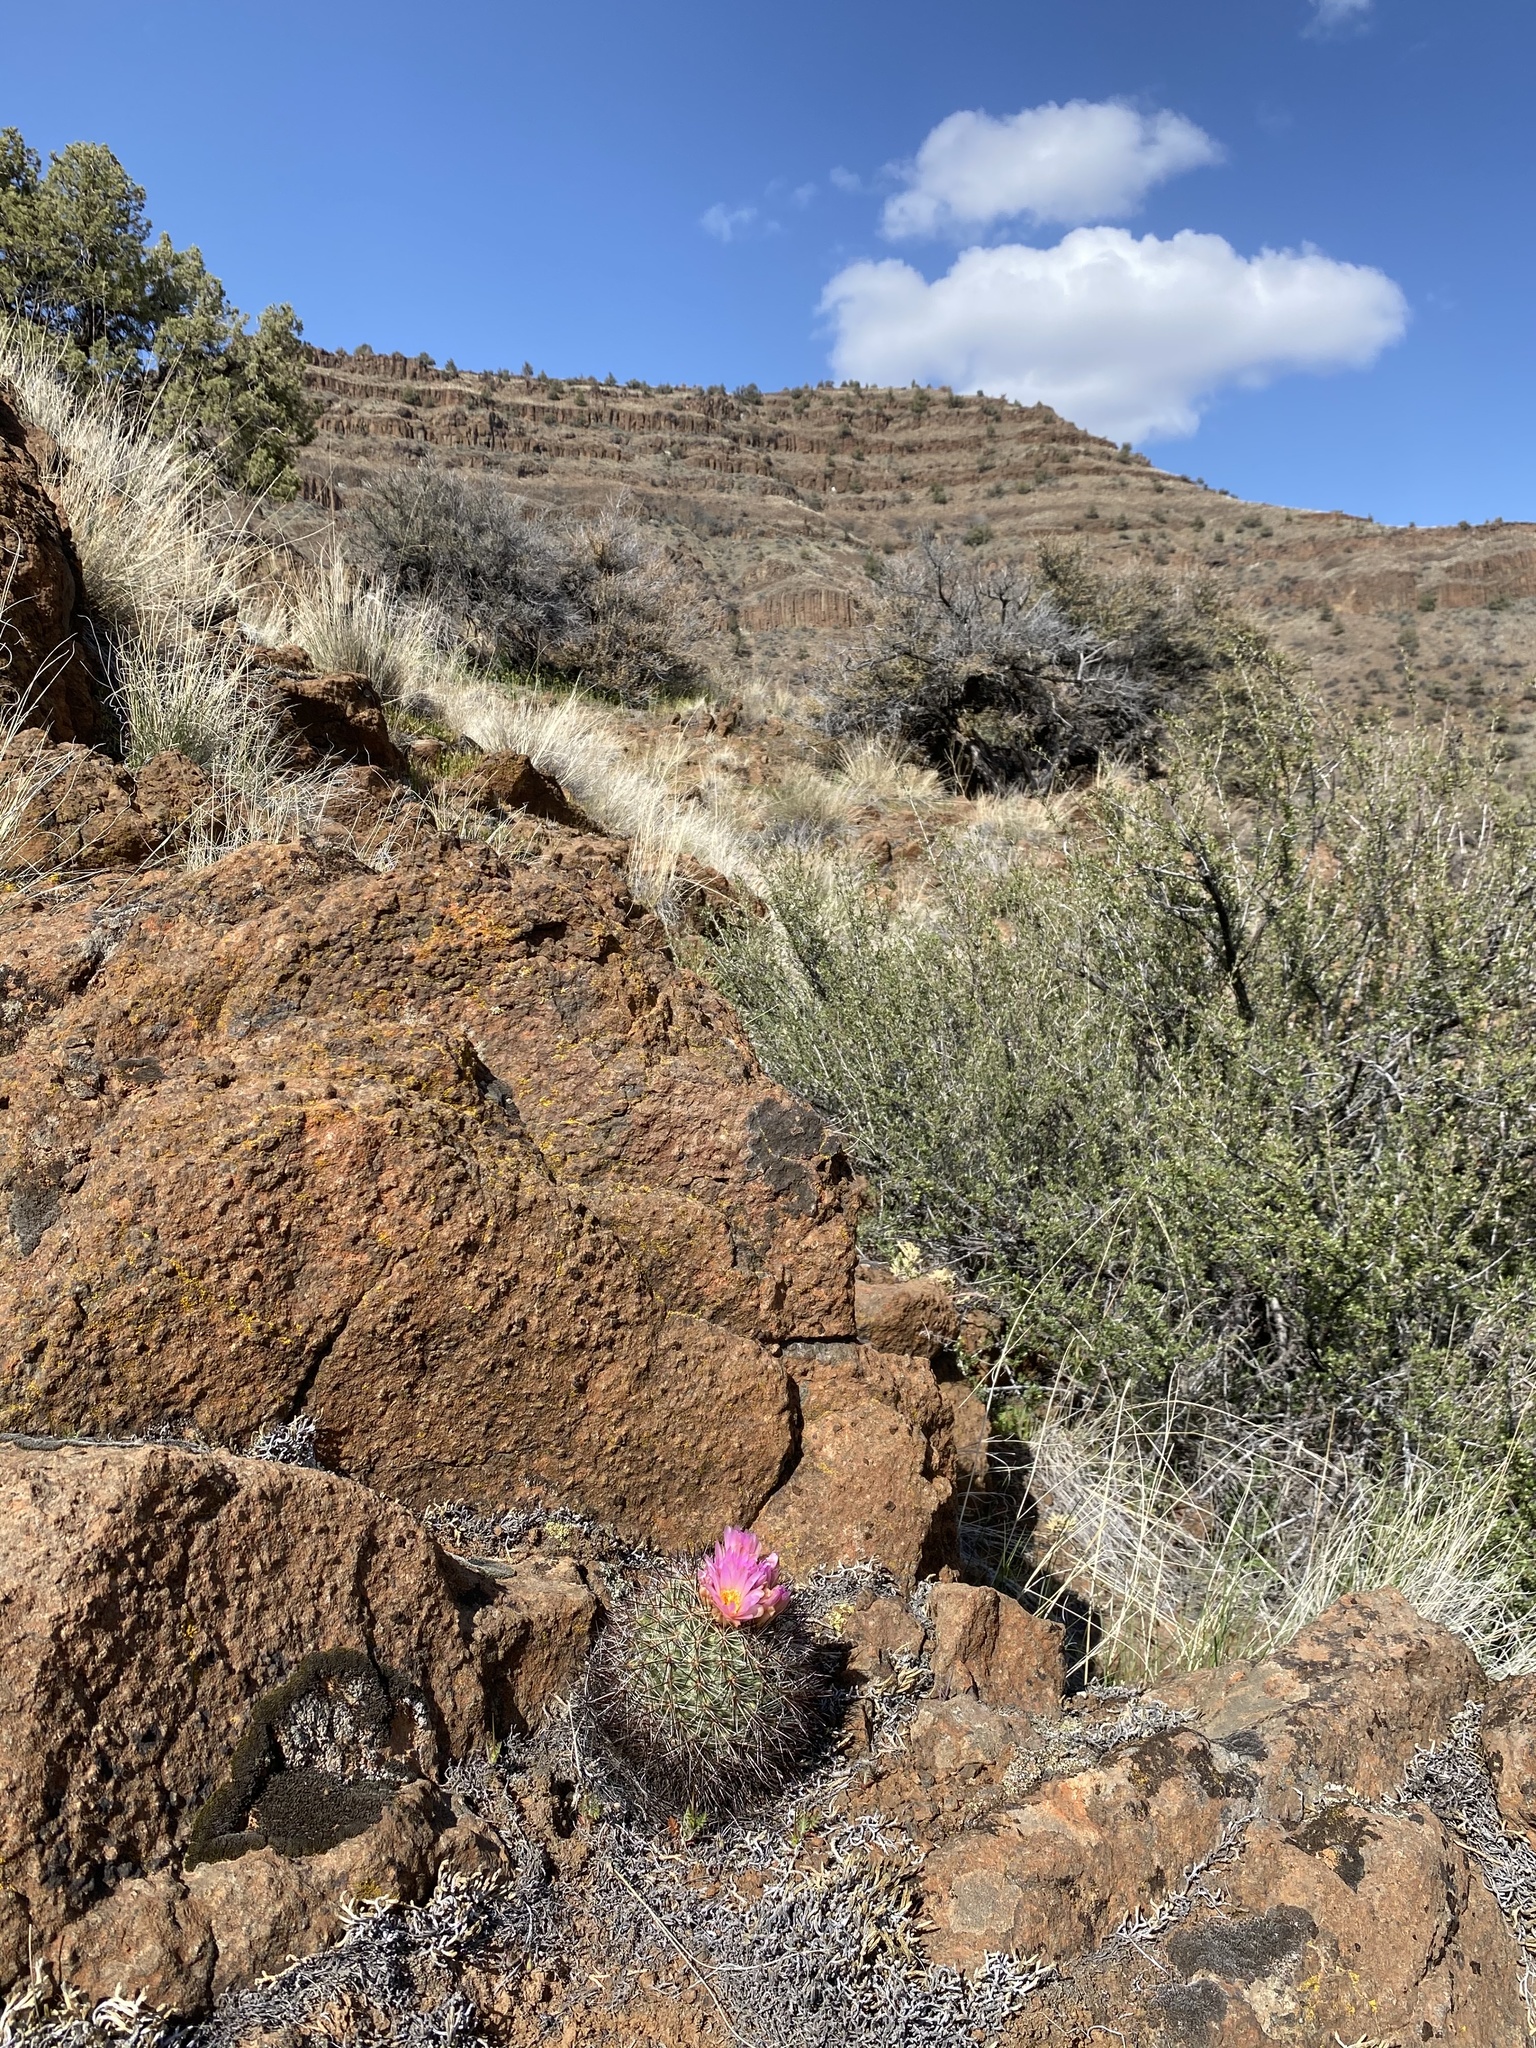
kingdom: Plantae
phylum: Tracheophyta
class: Magnoliopsida
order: Caryophyllales
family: Cactaceae
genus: Pediocactus
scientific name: Pediocactus nigrispinus
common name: Simpson's hedgehog cactus
